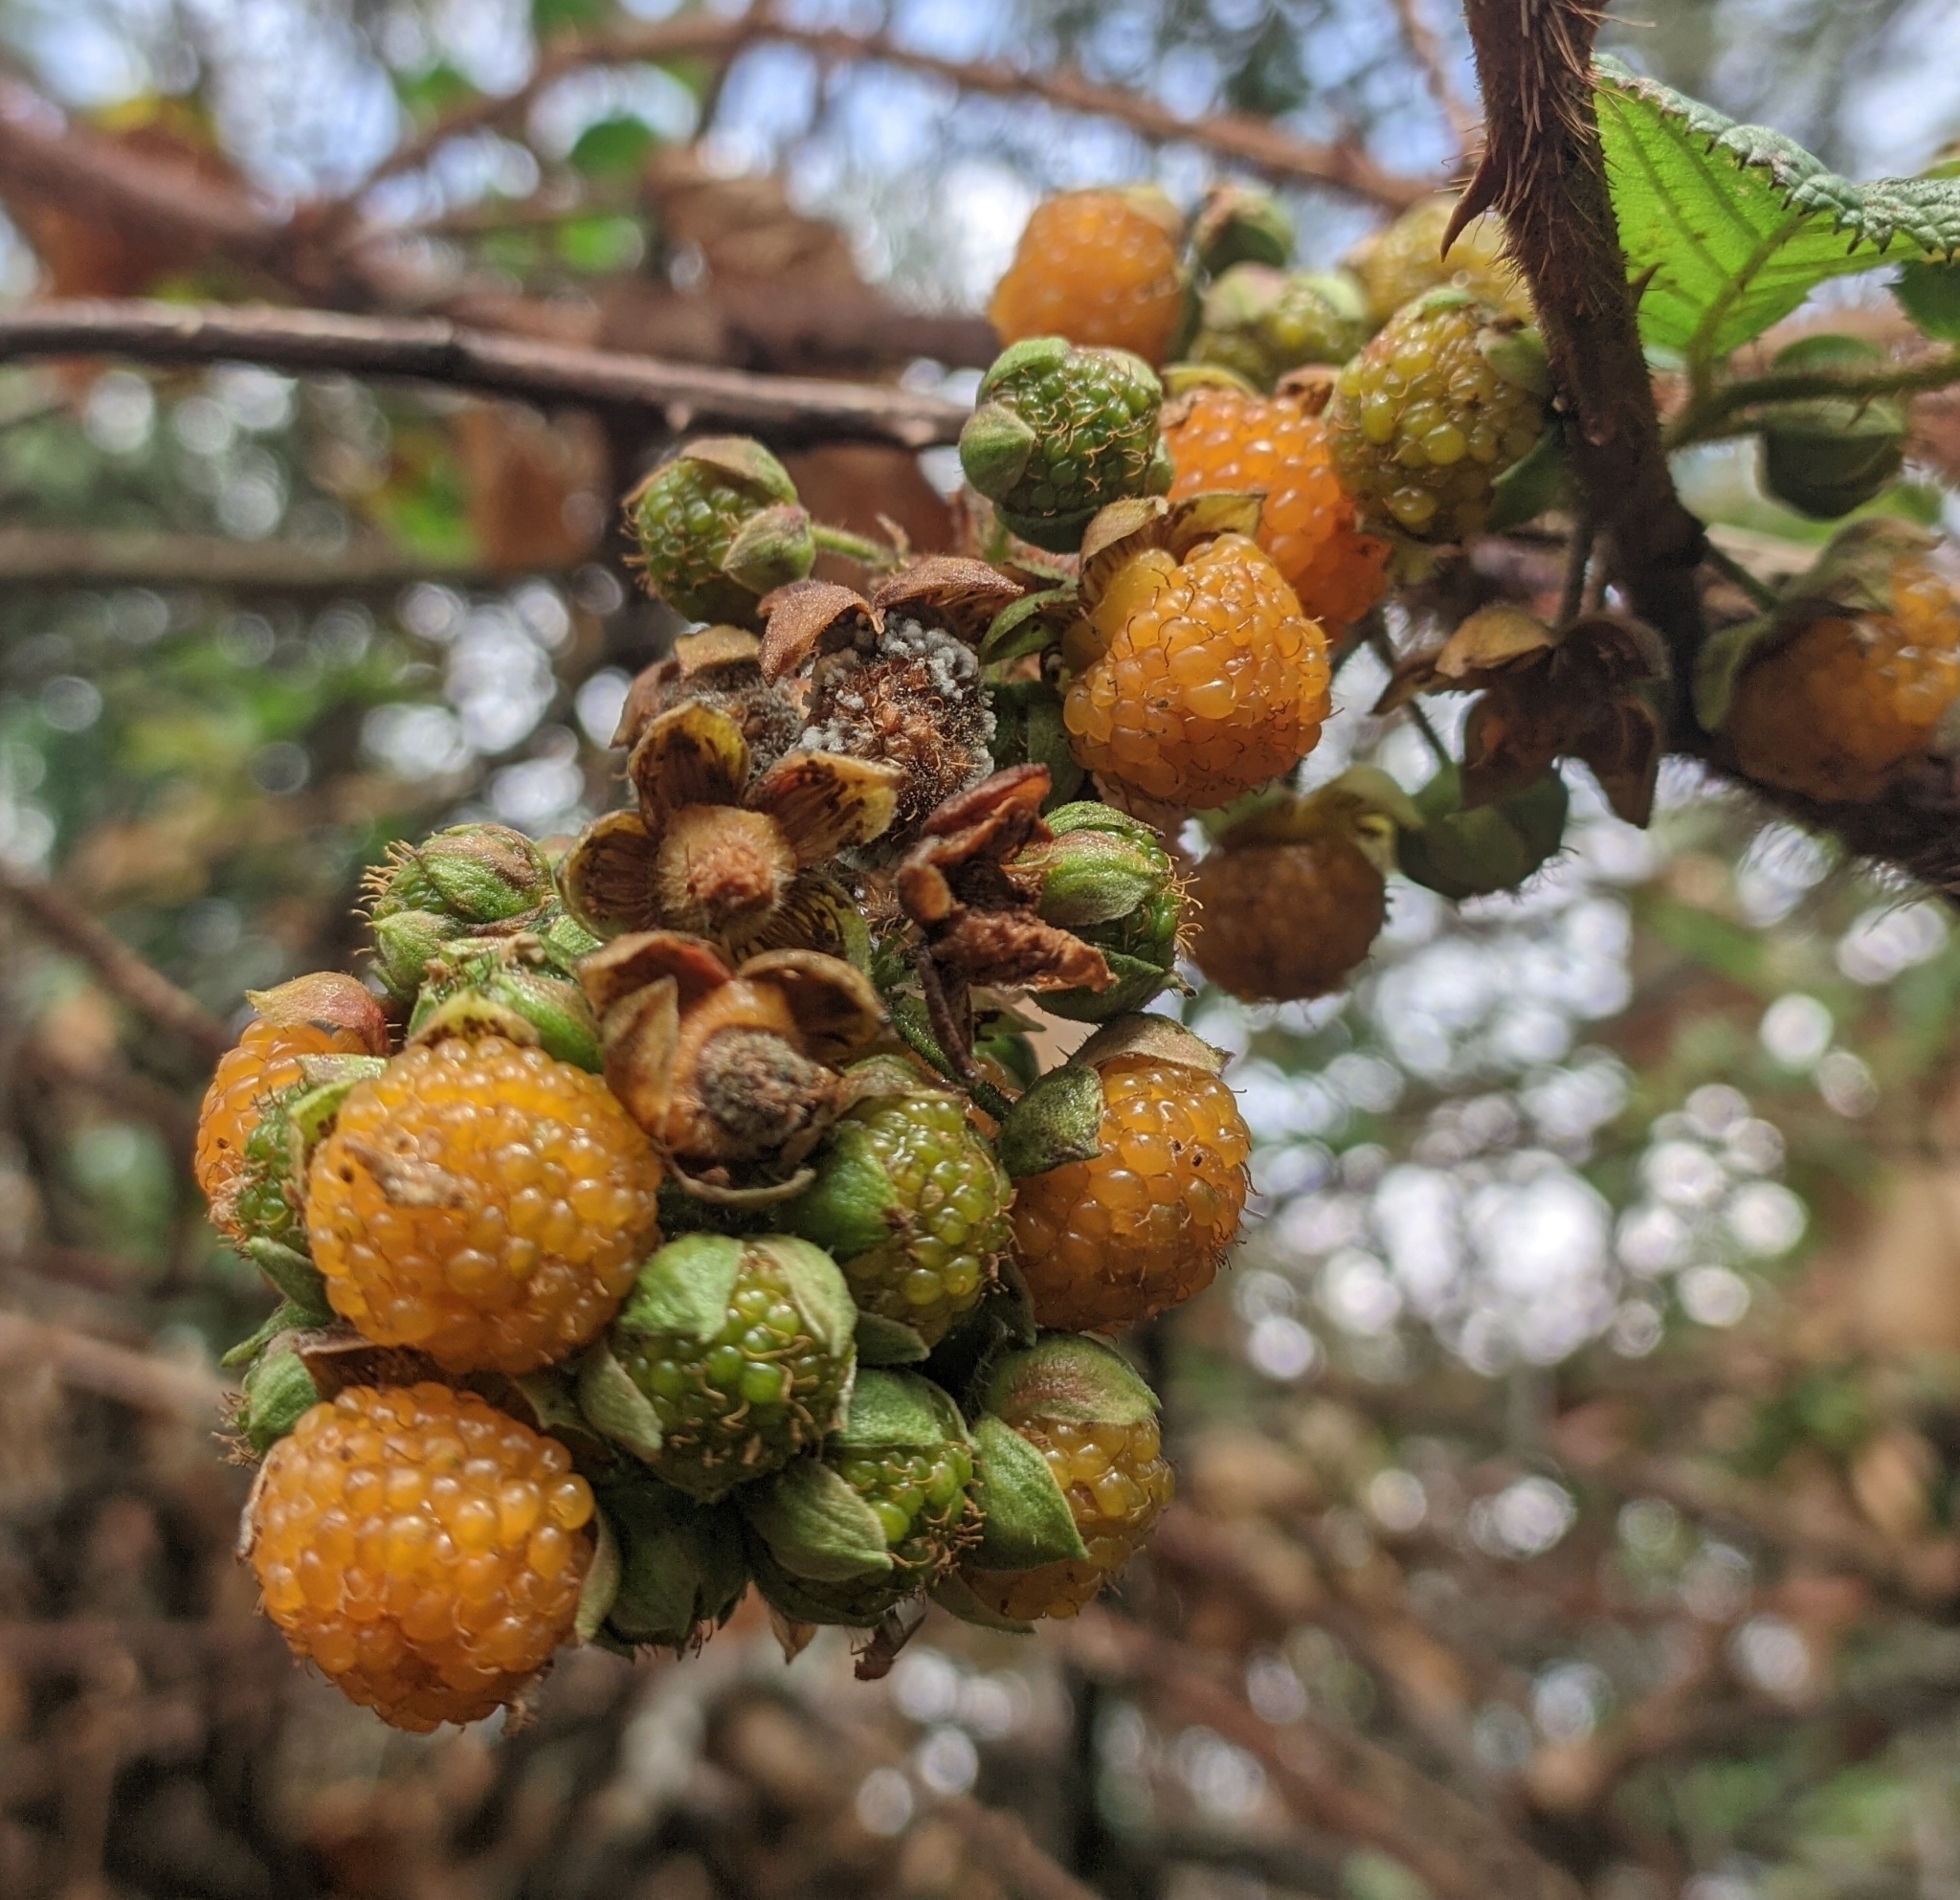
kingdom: Plantae
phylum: Tracheophyta
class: Magnoliopsida
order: Rosales
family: Rosaceae
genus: Rubus
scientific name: Rubus ellipticus
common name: Cheeseberry
